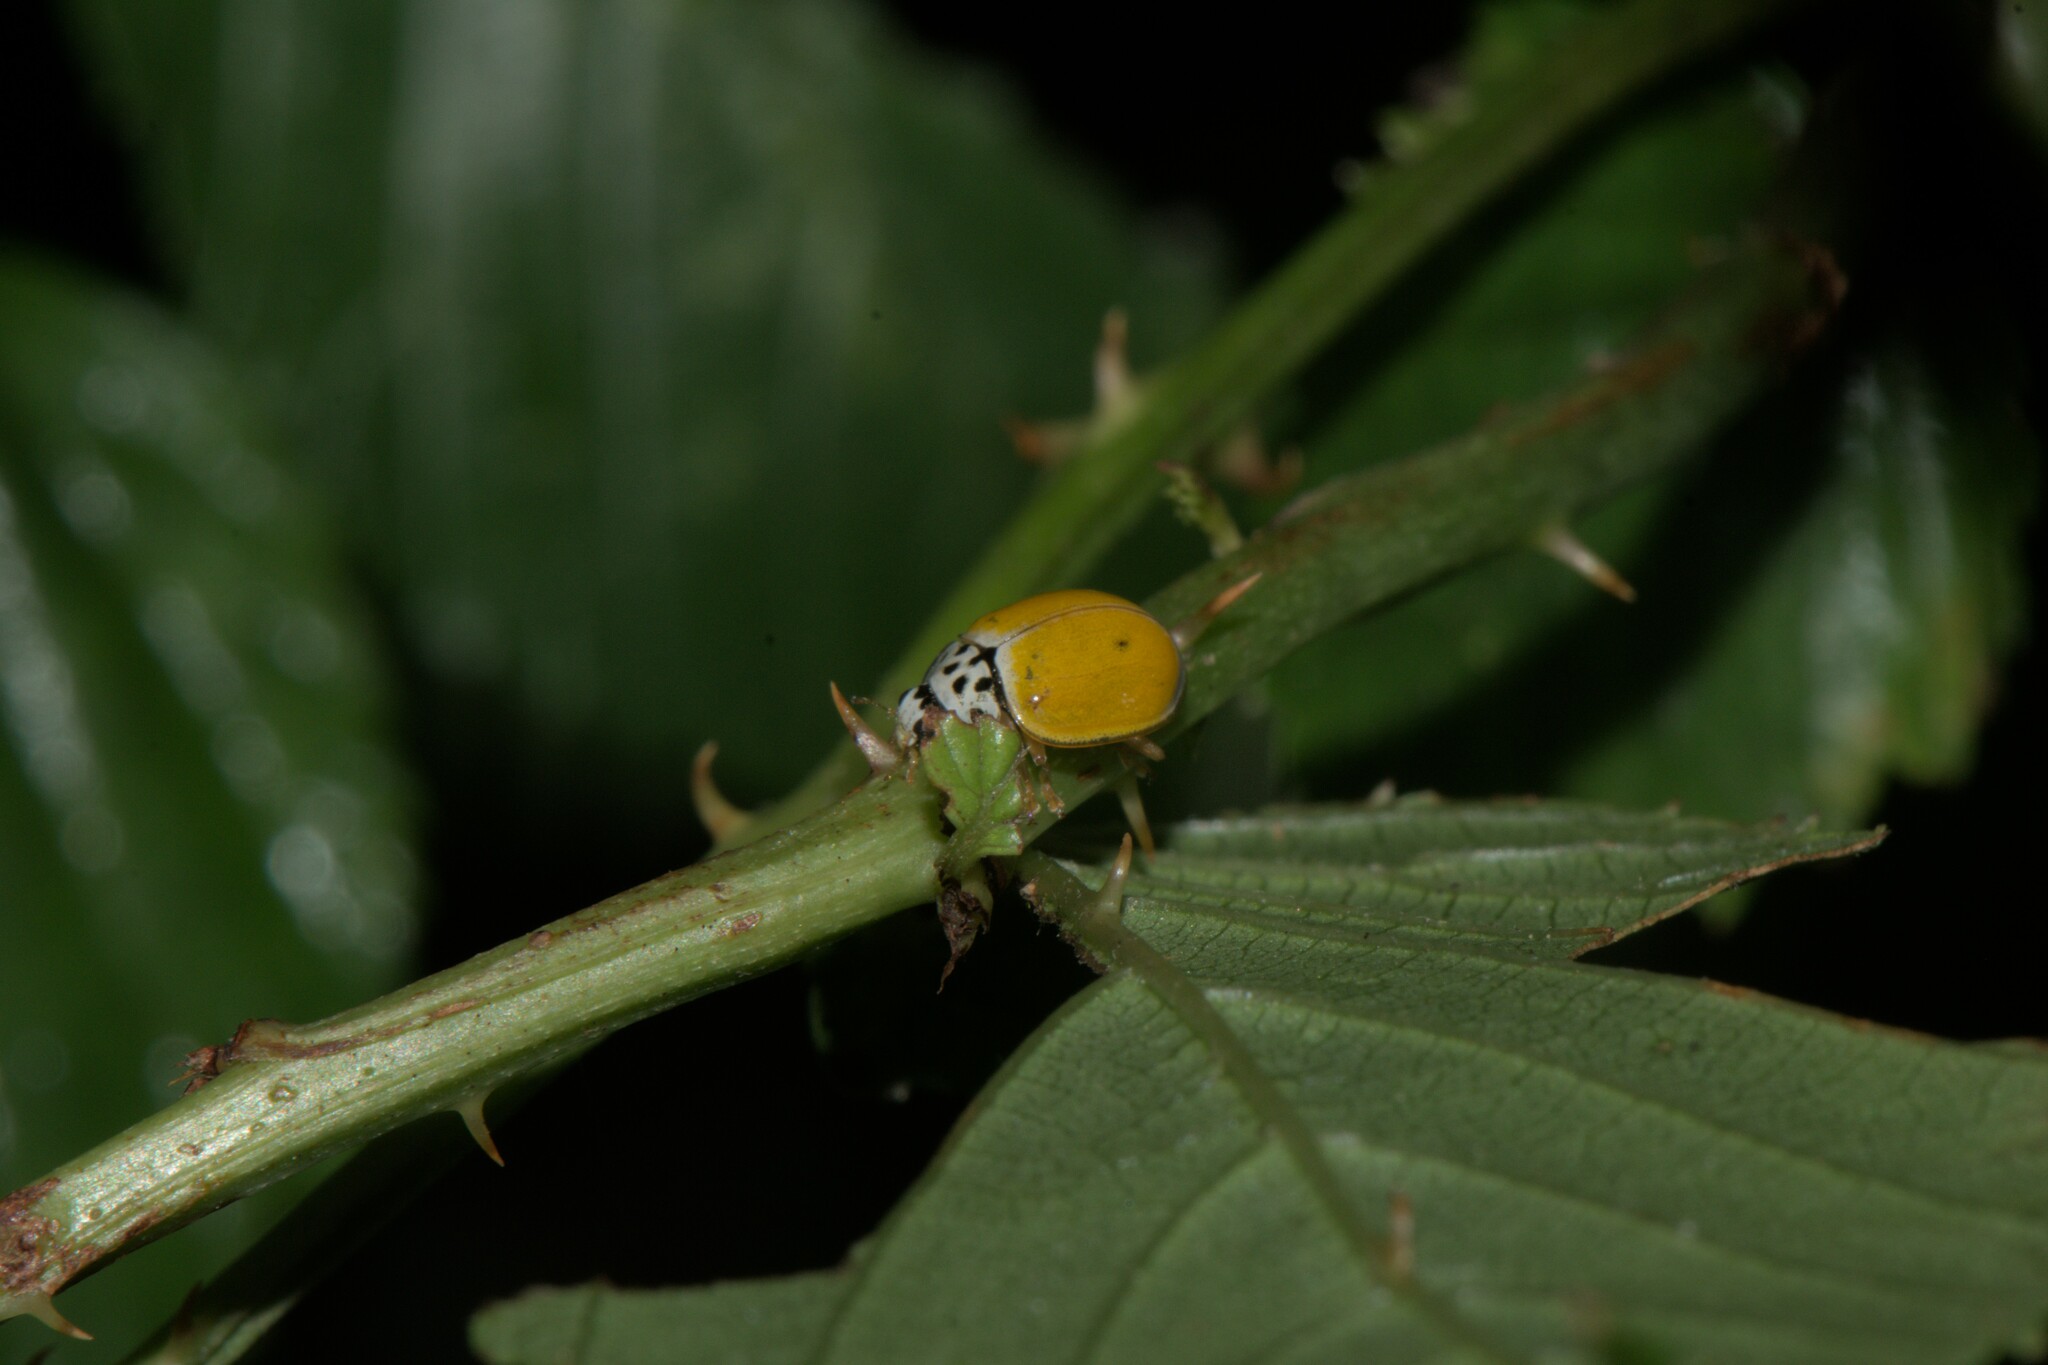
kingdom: Animalia
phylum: Arthropoda
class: Insecta
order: Coleoptera
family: Coccinellidae
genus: Oenopia
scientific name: Oenopia
